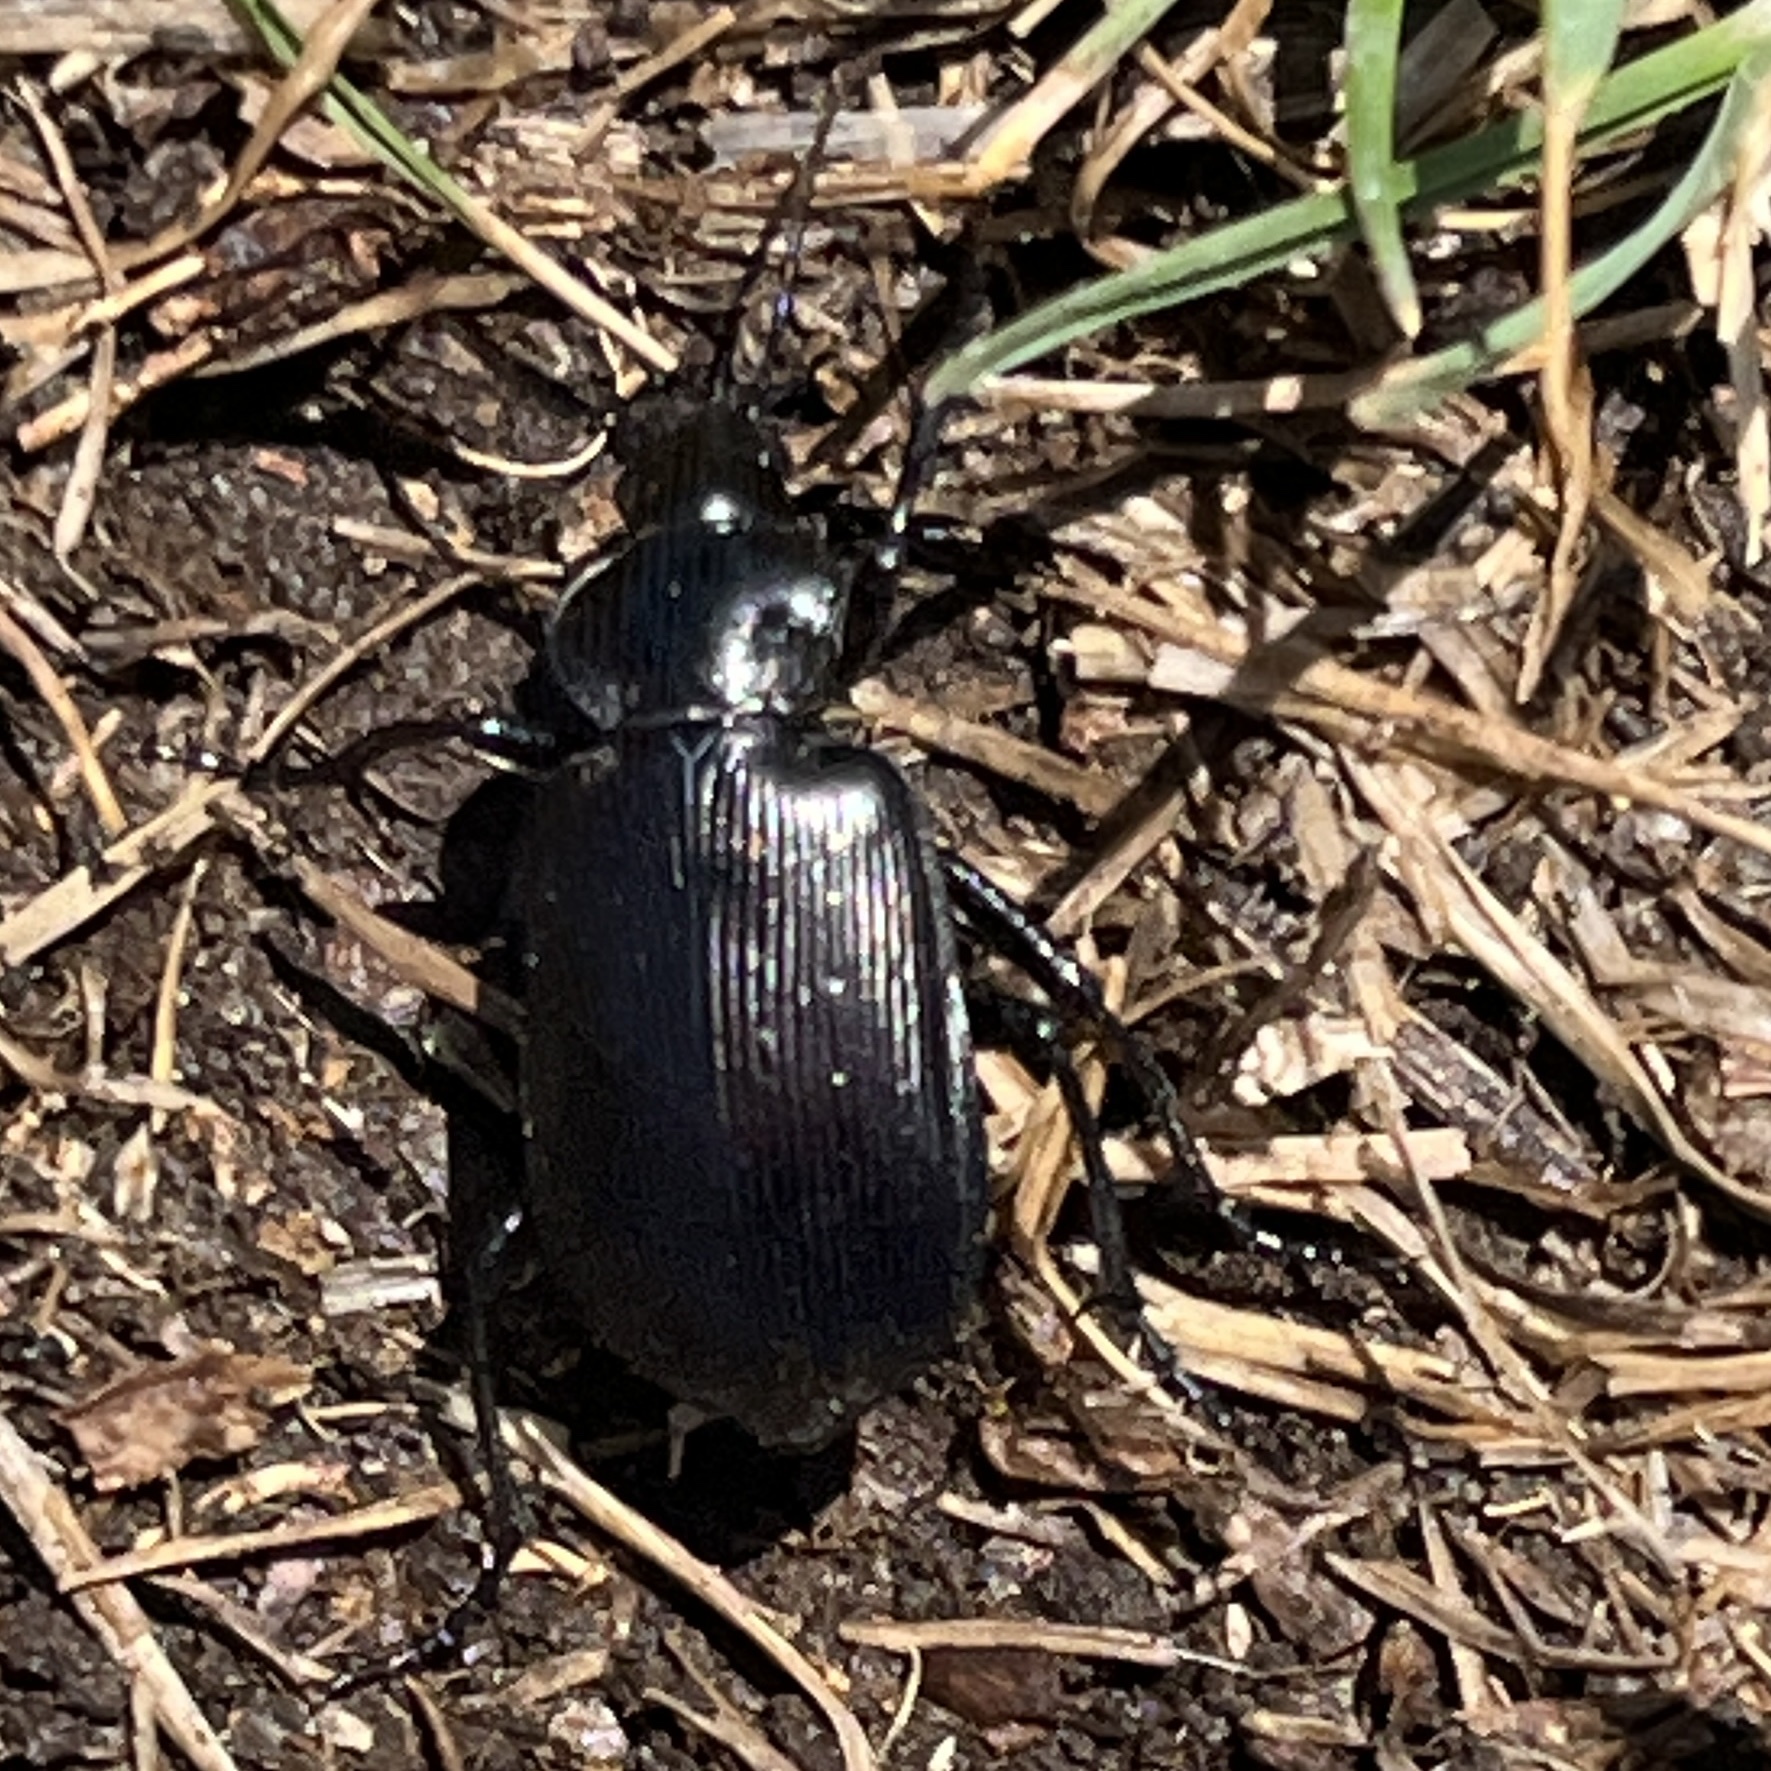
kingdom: Animalia
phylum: Arthropoda
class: Insecta
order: Coleoptera
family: Carabidae
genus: Calosoma
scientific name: Calosoma vagans
